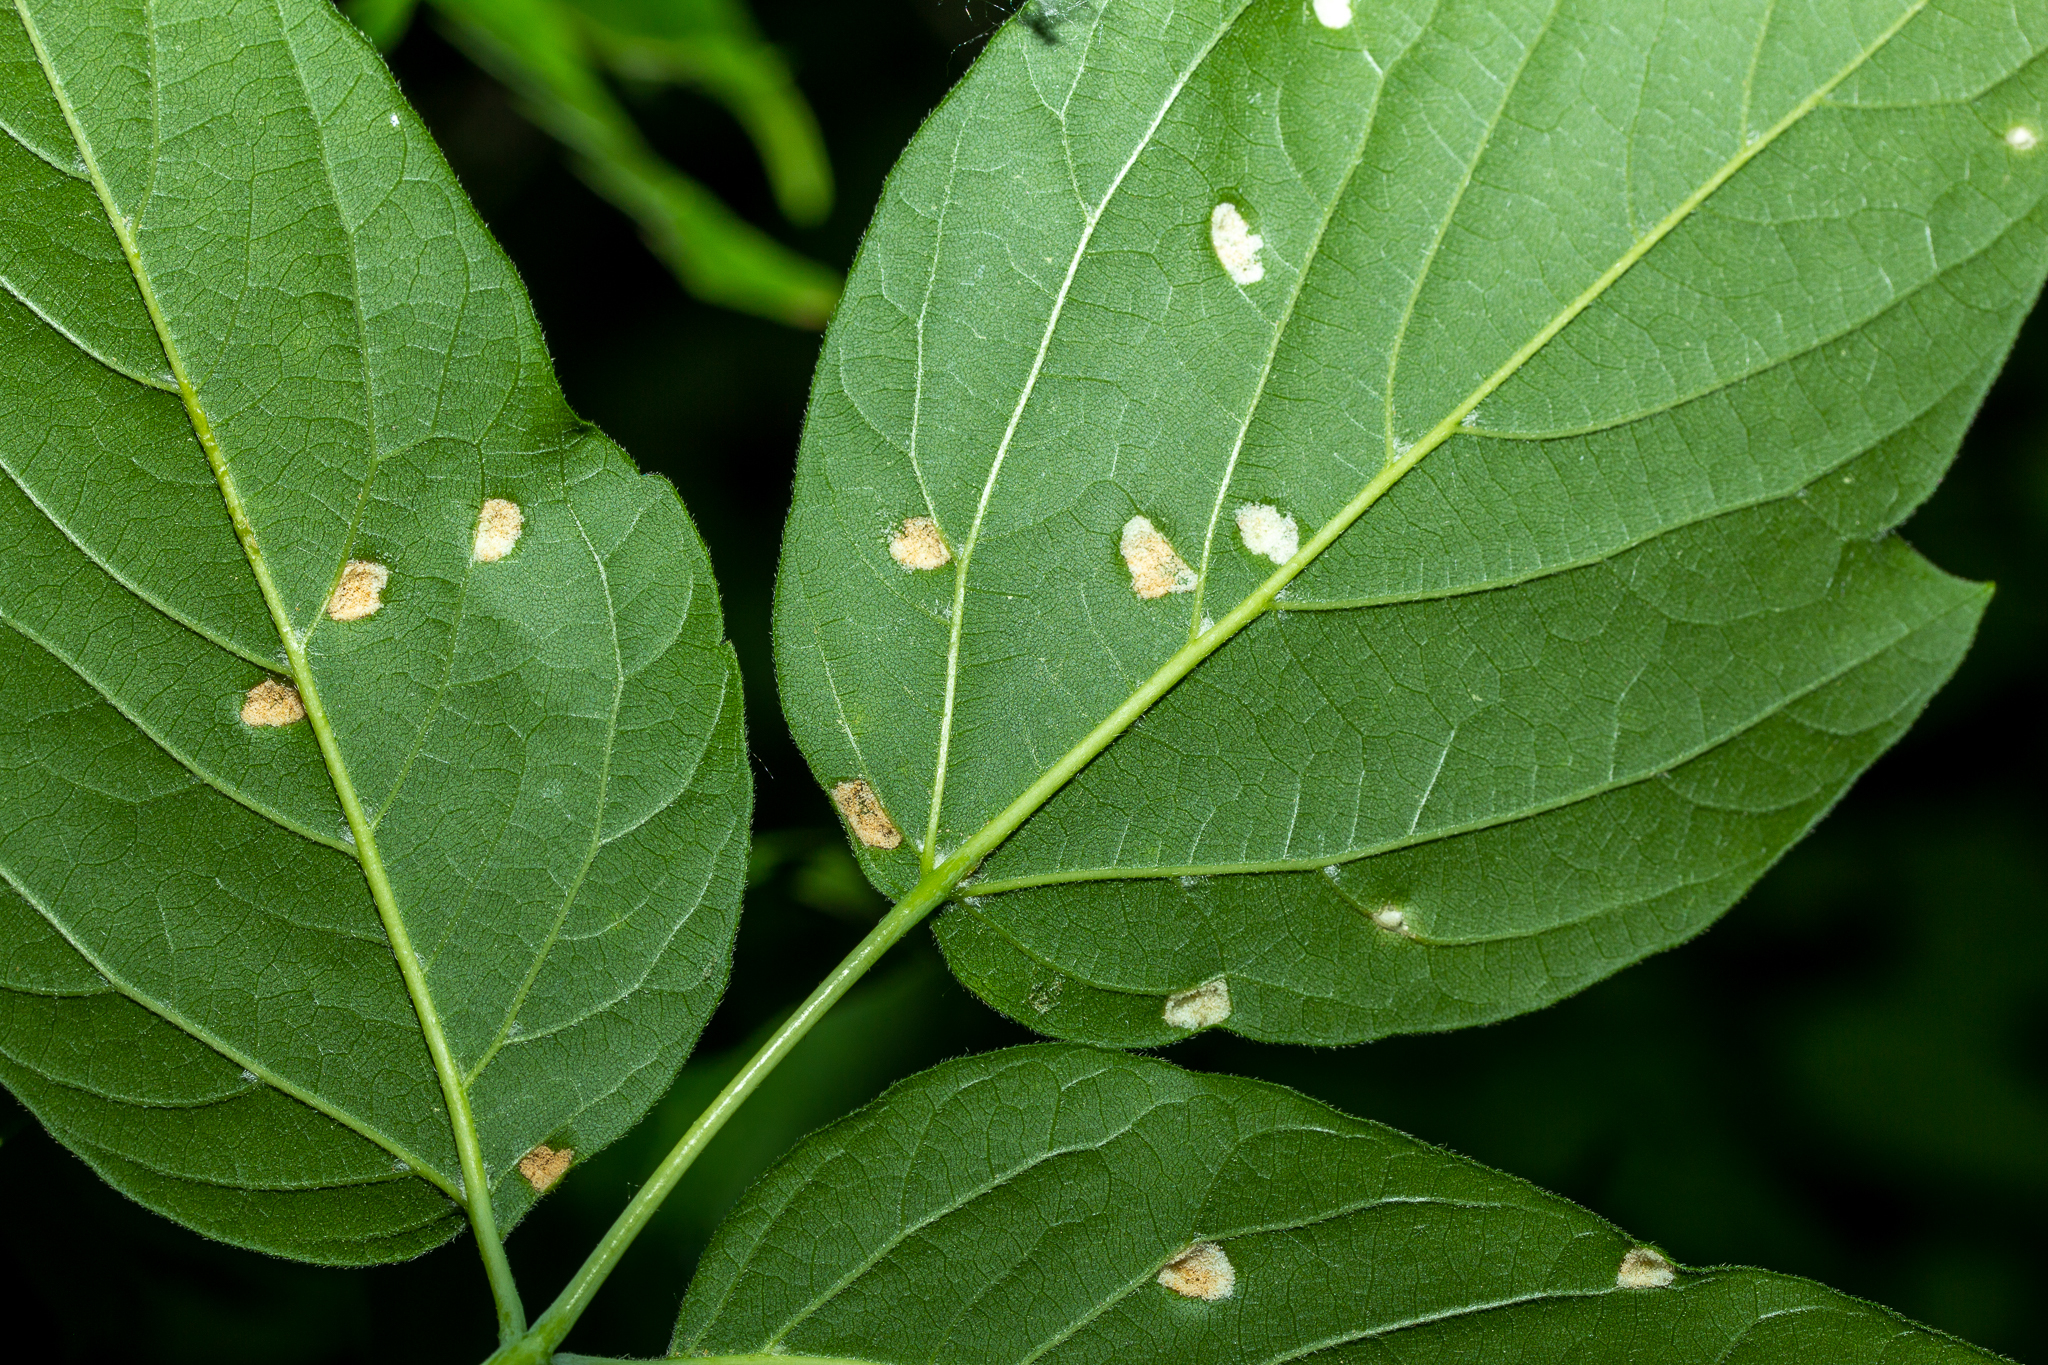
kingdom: Animalia
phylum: Arthropoda
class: Arachnida
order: Trombidiformes
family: Eriophyidae
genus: Aceria
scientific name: Aceria
